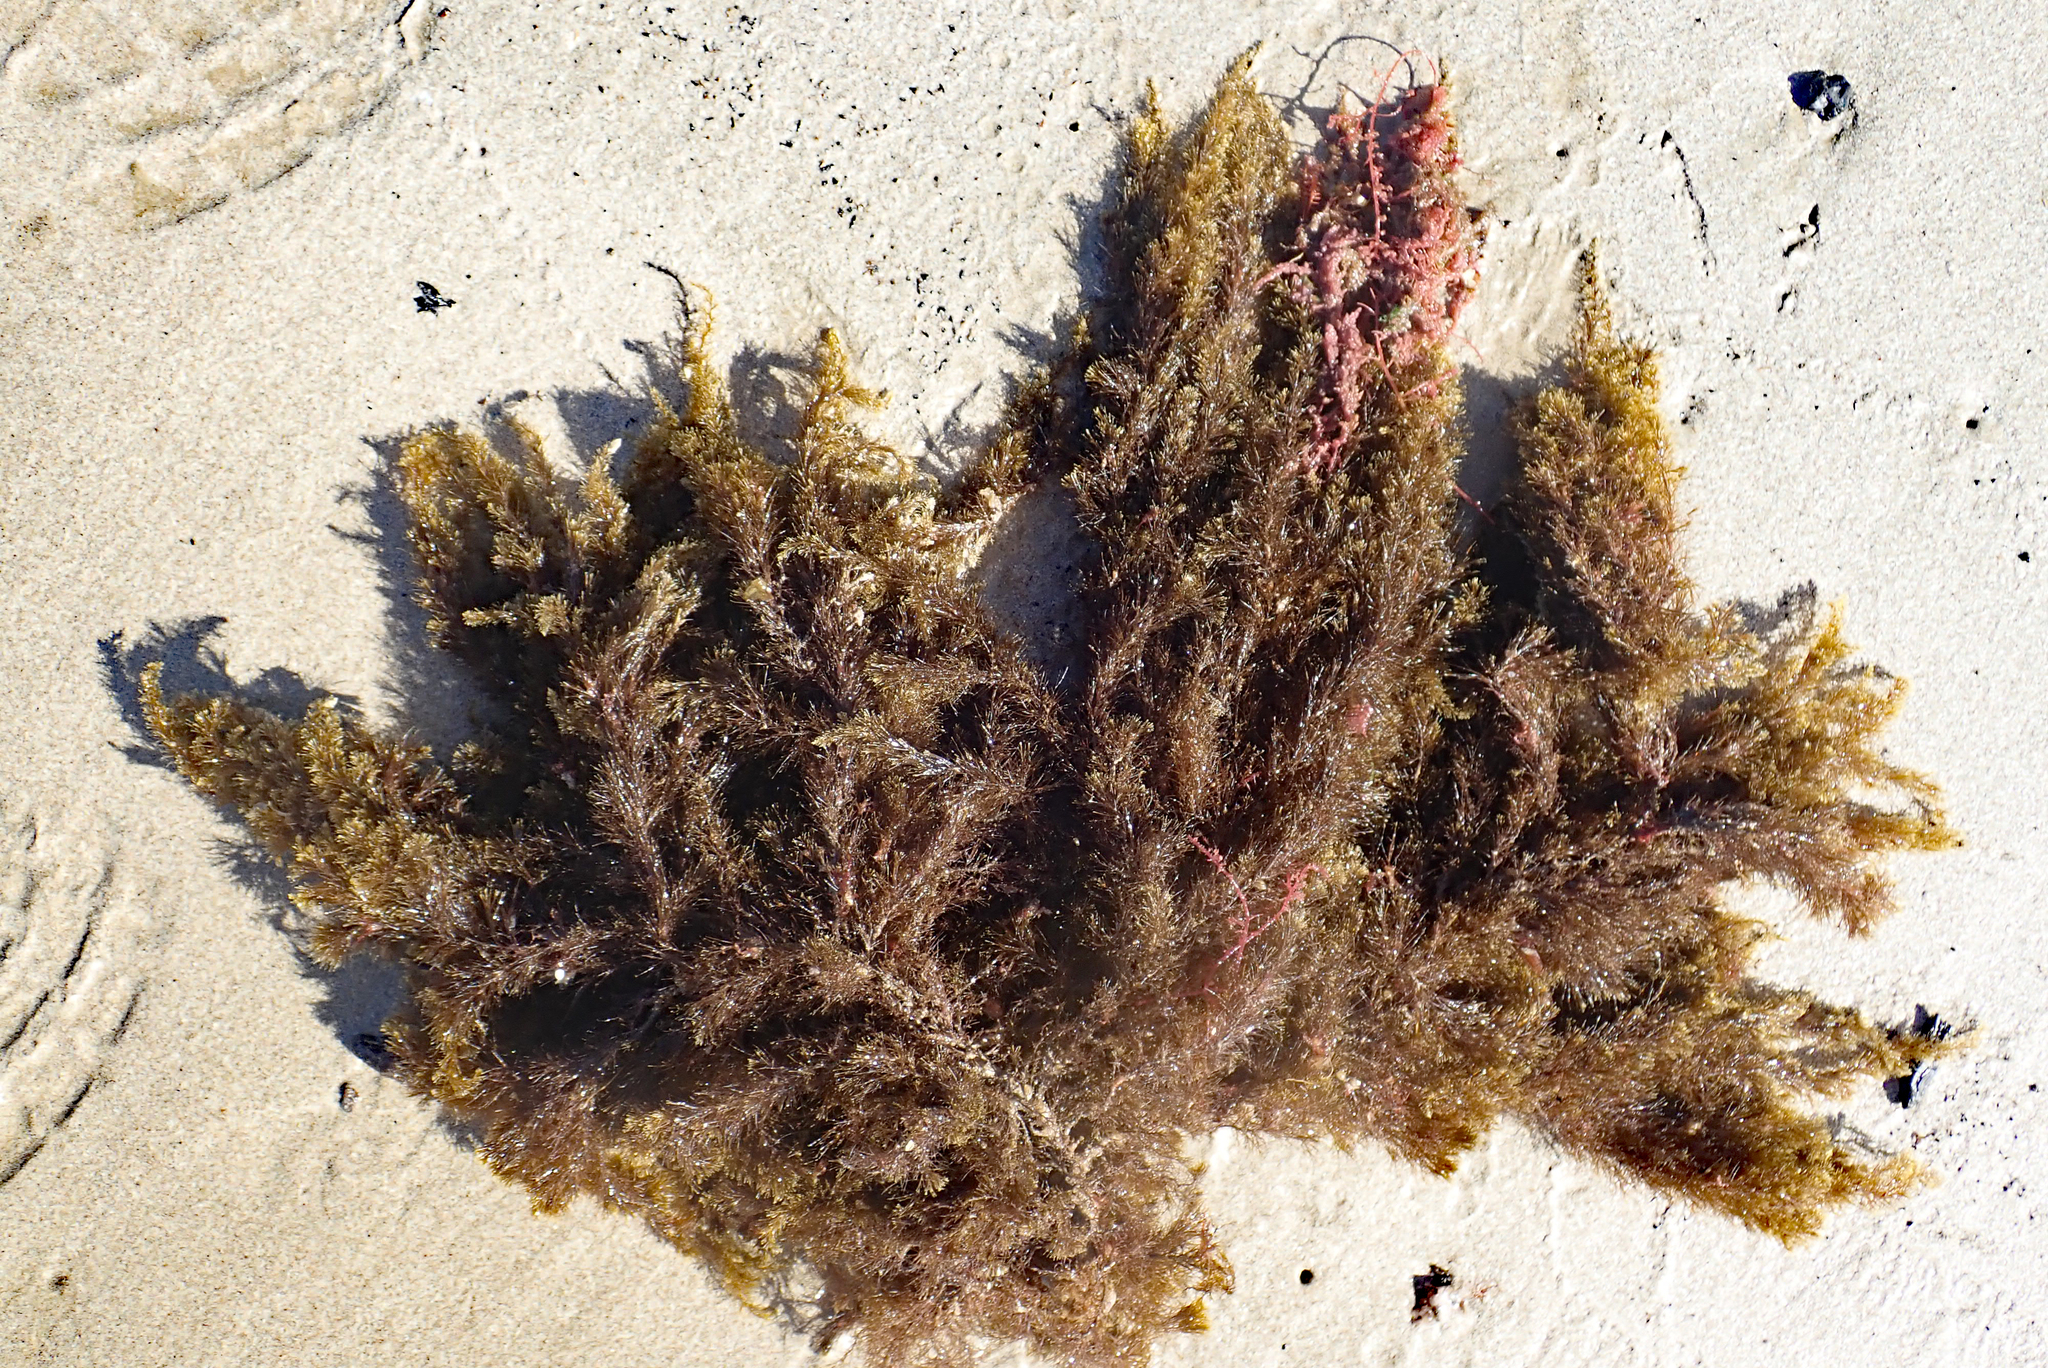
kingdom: Chromista
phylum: Ochrophyta
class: Phaeophyceae
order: Sphacelariales
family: Stypocaulaceae
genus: Halopteris
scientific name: Halopteris virgata
